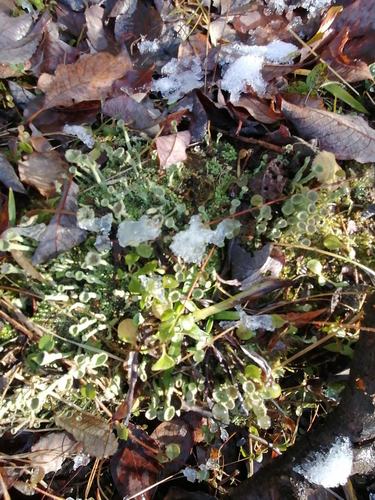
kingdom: Fungi
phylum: Ascomycota
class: Lecanoromycetes
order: Lecanorales
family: Cladoniaceae
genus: Cladonia
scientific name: Cladonia fimbriata
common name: Powdered trumpet lichen
